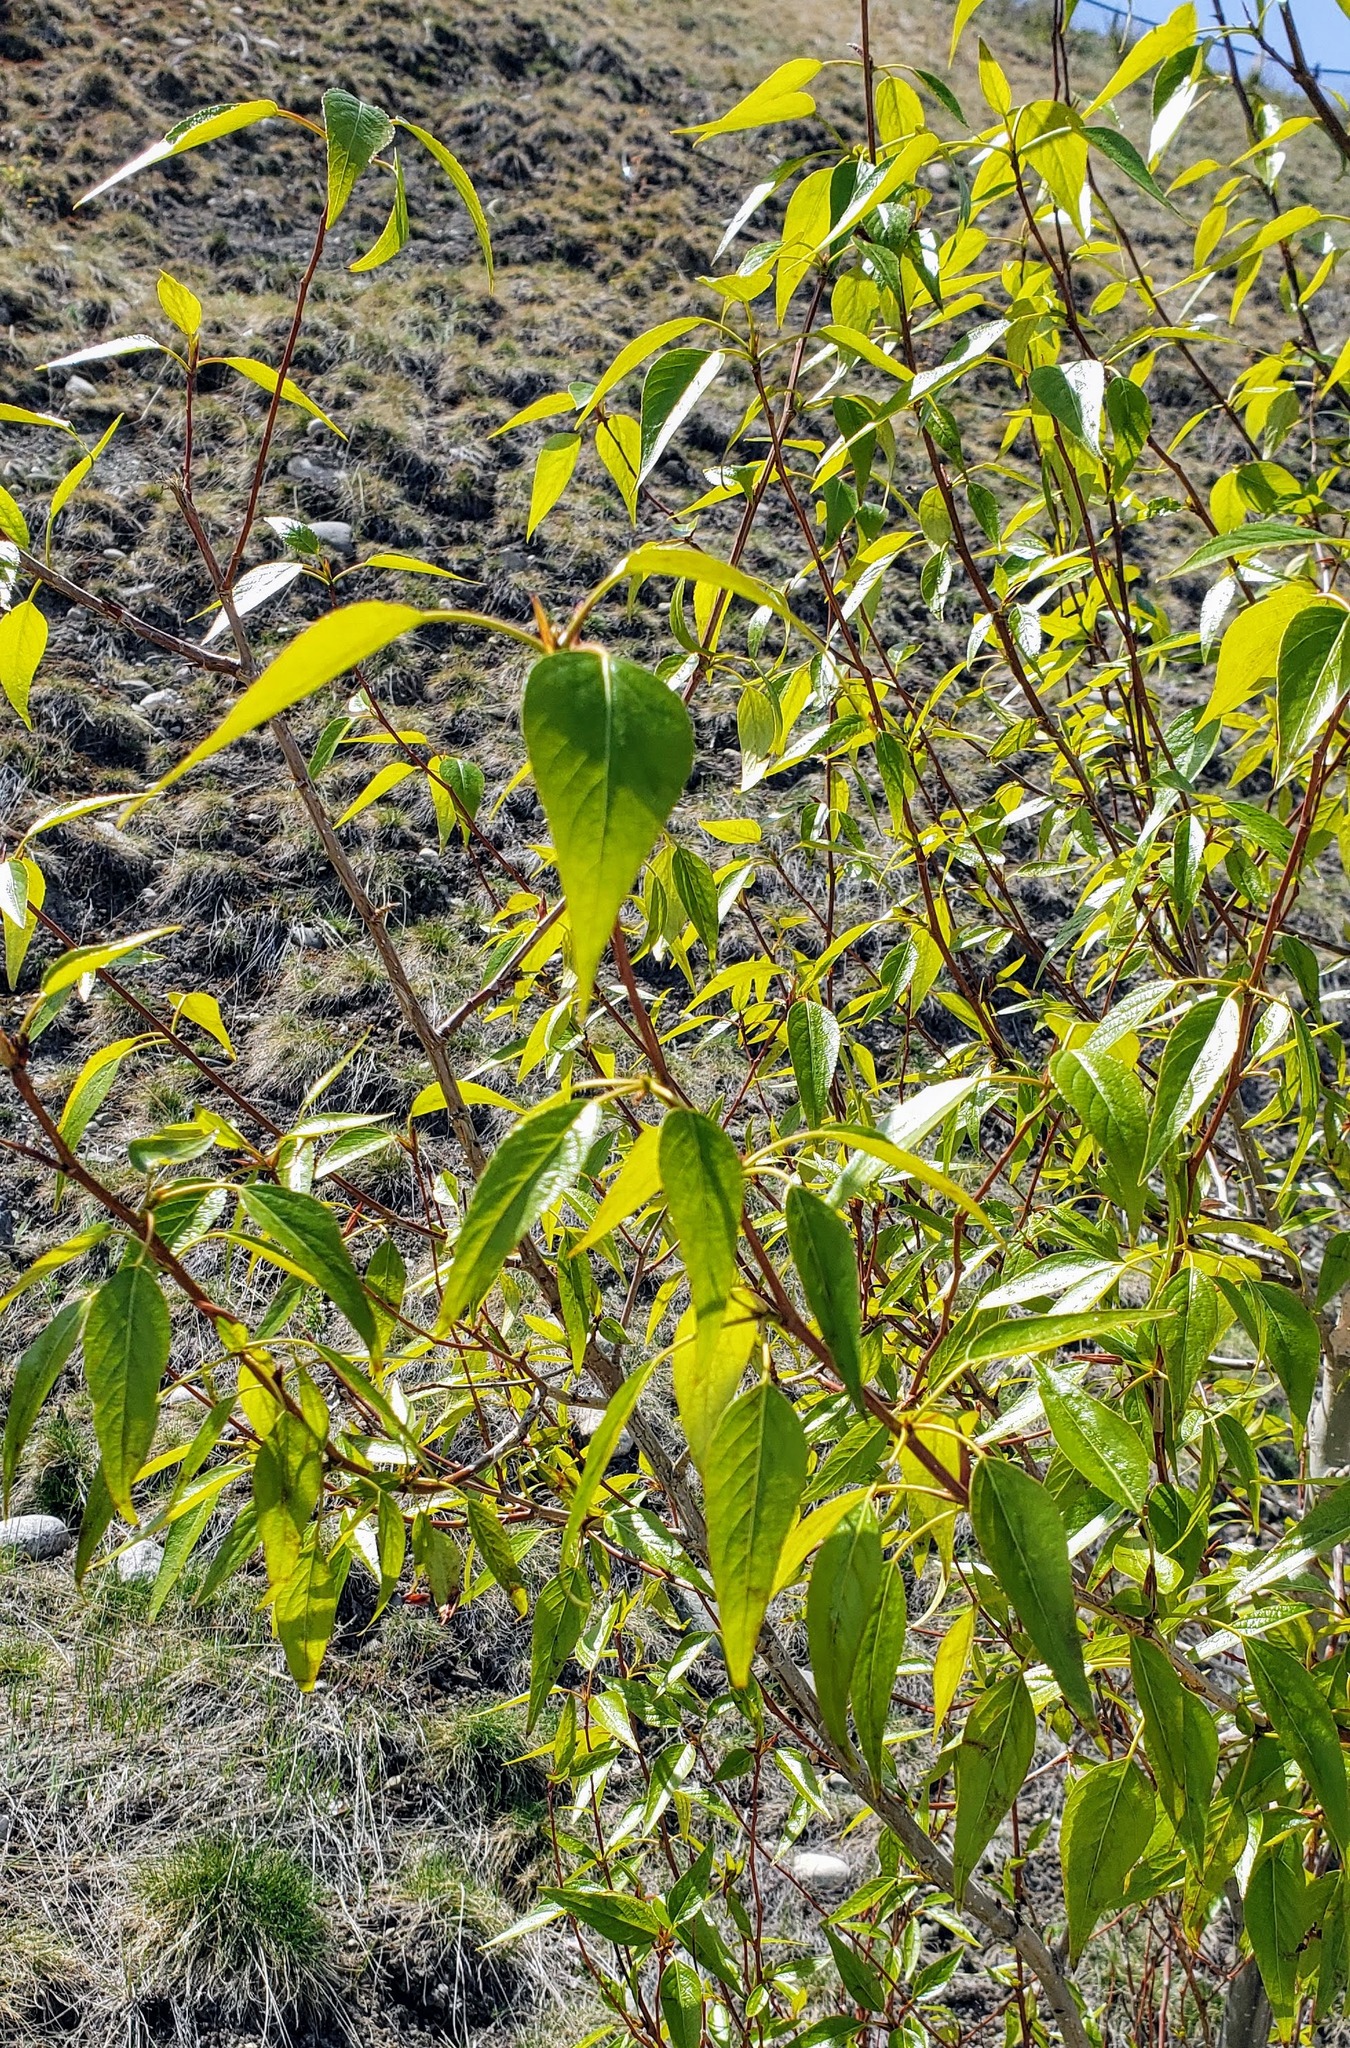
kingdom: Plantae
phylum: Tracheophyta
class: Magnoliopsida
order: Malpighiales
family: Salicaceae
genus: Populus
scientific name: Populus trichocarpa
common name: Black cottonwood
